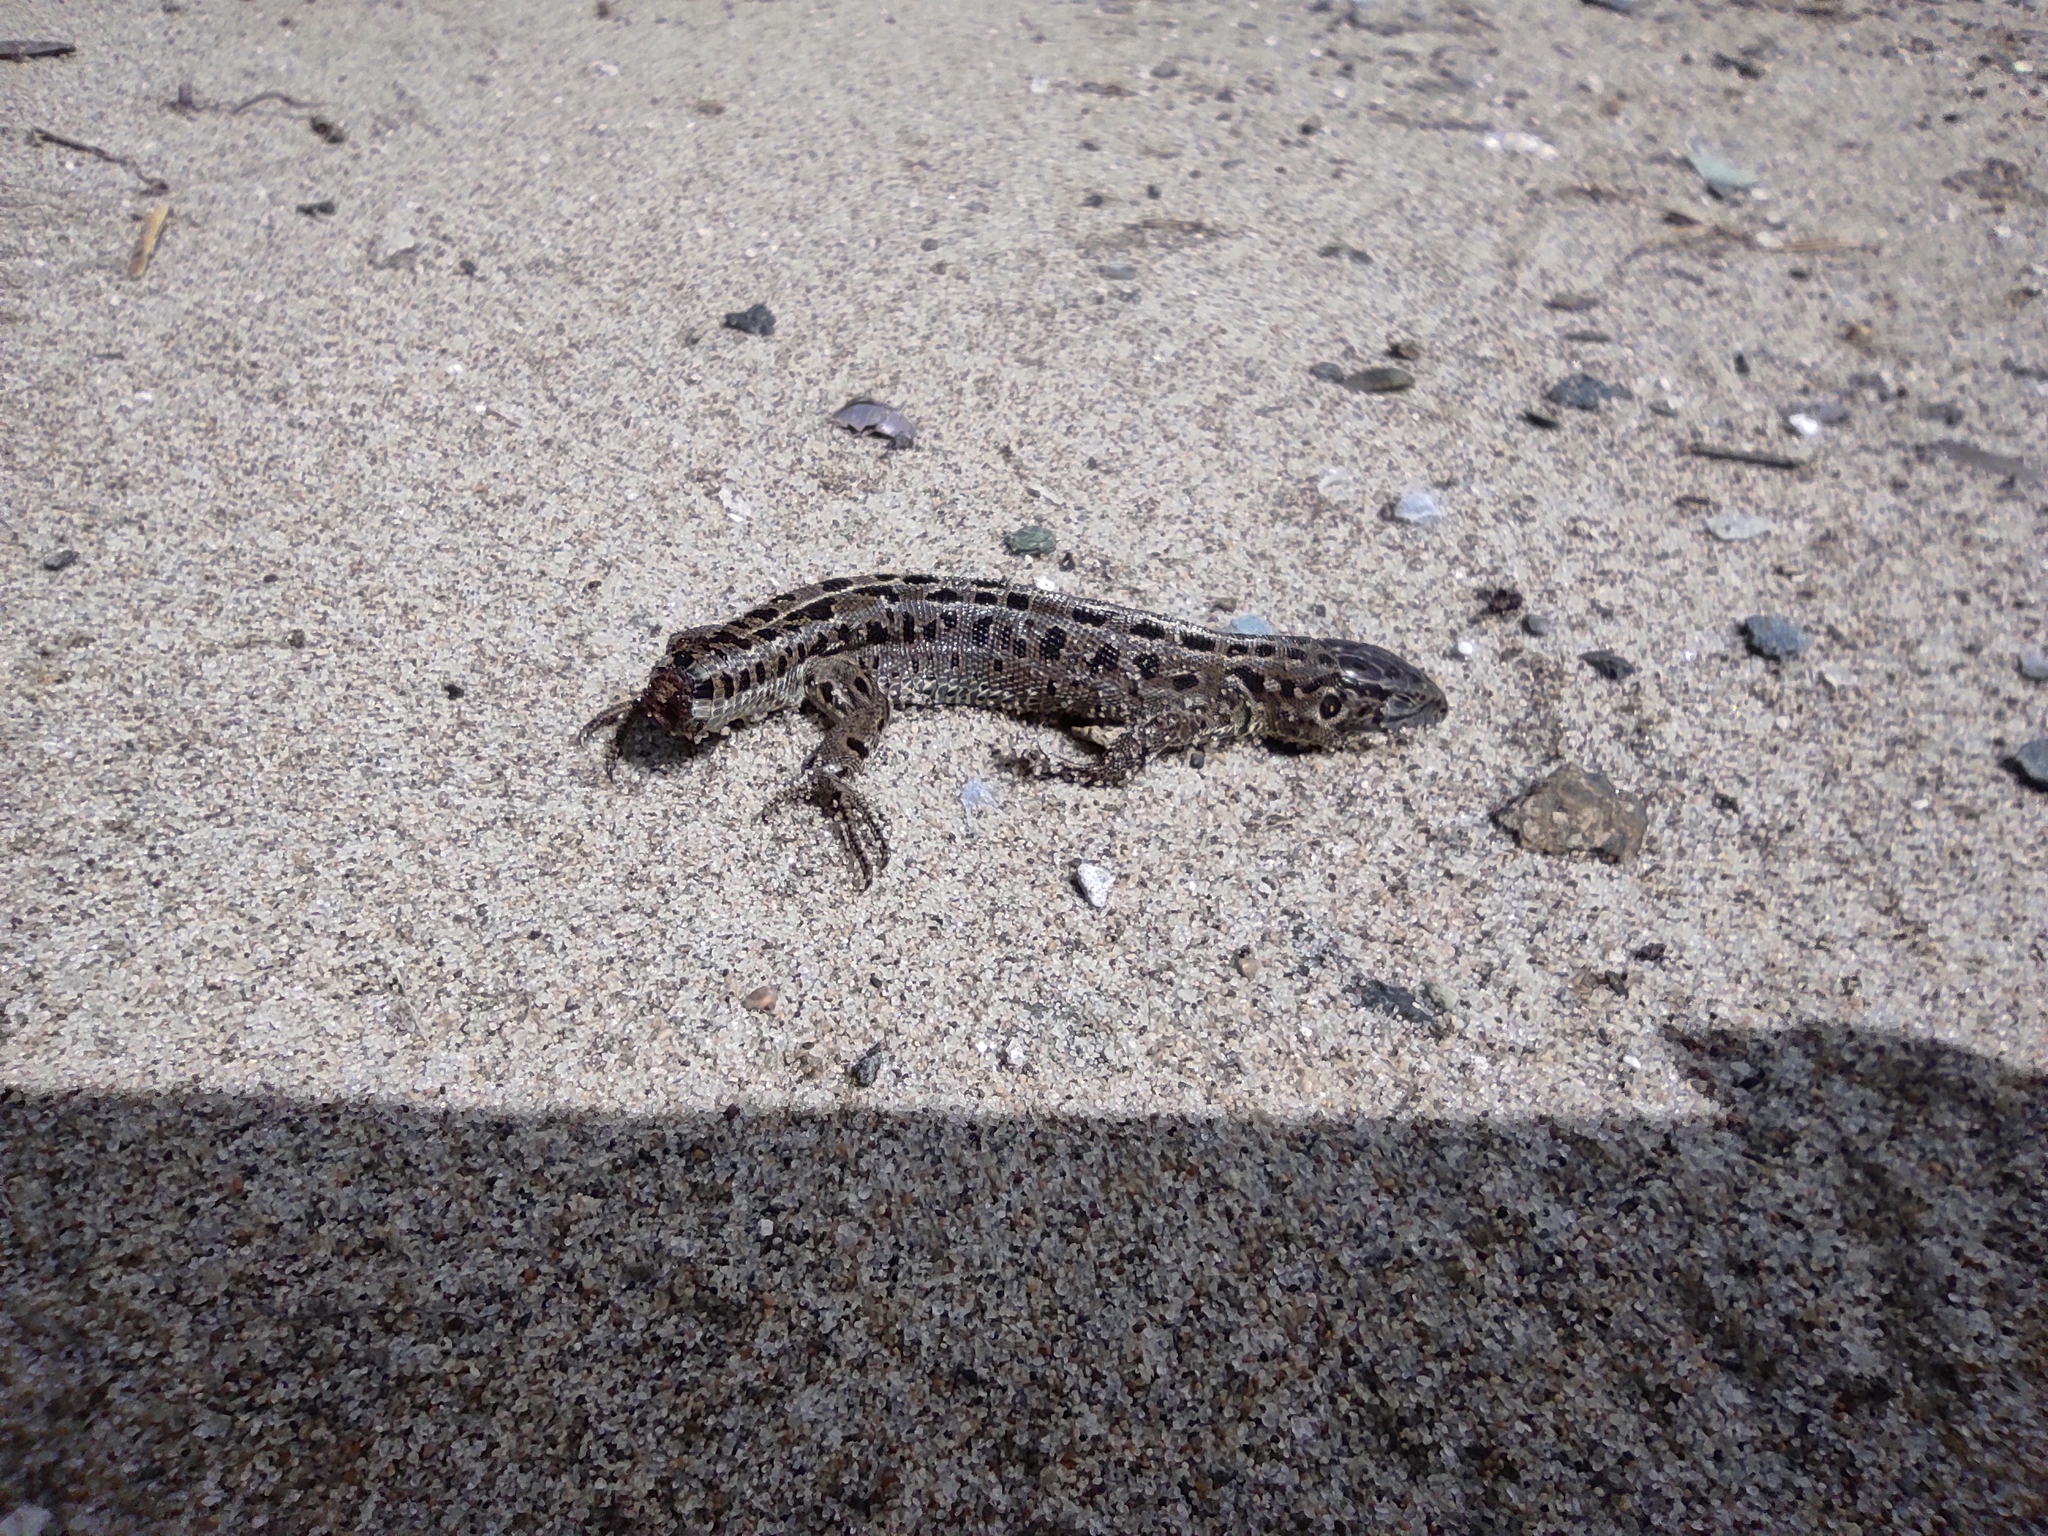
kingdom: Animalia
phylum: Chordata
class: Squamata
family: Lacertidae
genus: Lacerta
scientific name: Lacerta agilis
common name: Sand lizard
